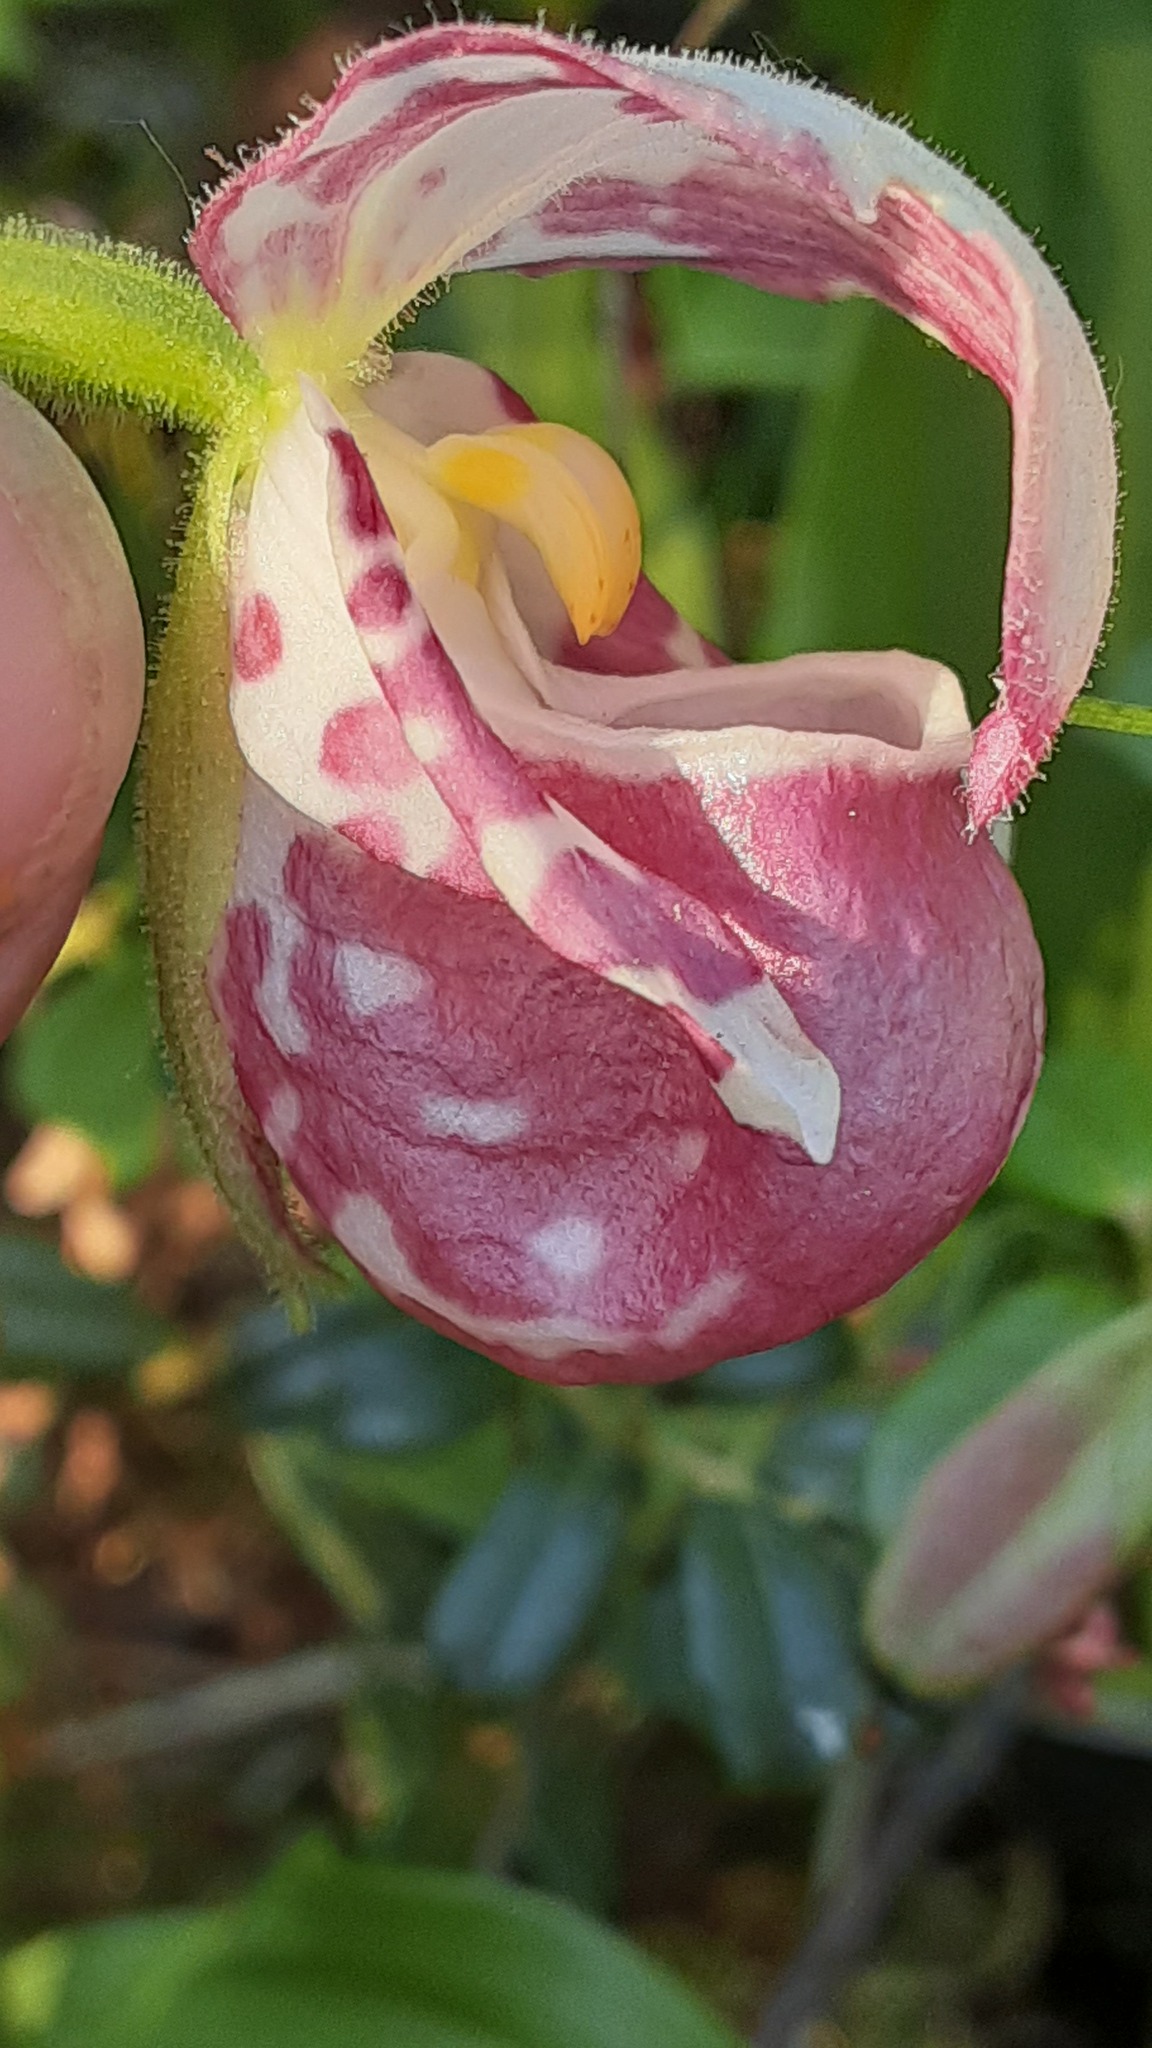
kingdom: Plantae
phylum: Tracheophyta
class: Liliopsida
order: Asparagales
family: Orchidaceae
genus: Cypripedium
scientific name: Cypripedium guttatum
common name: Pink lady slipper
